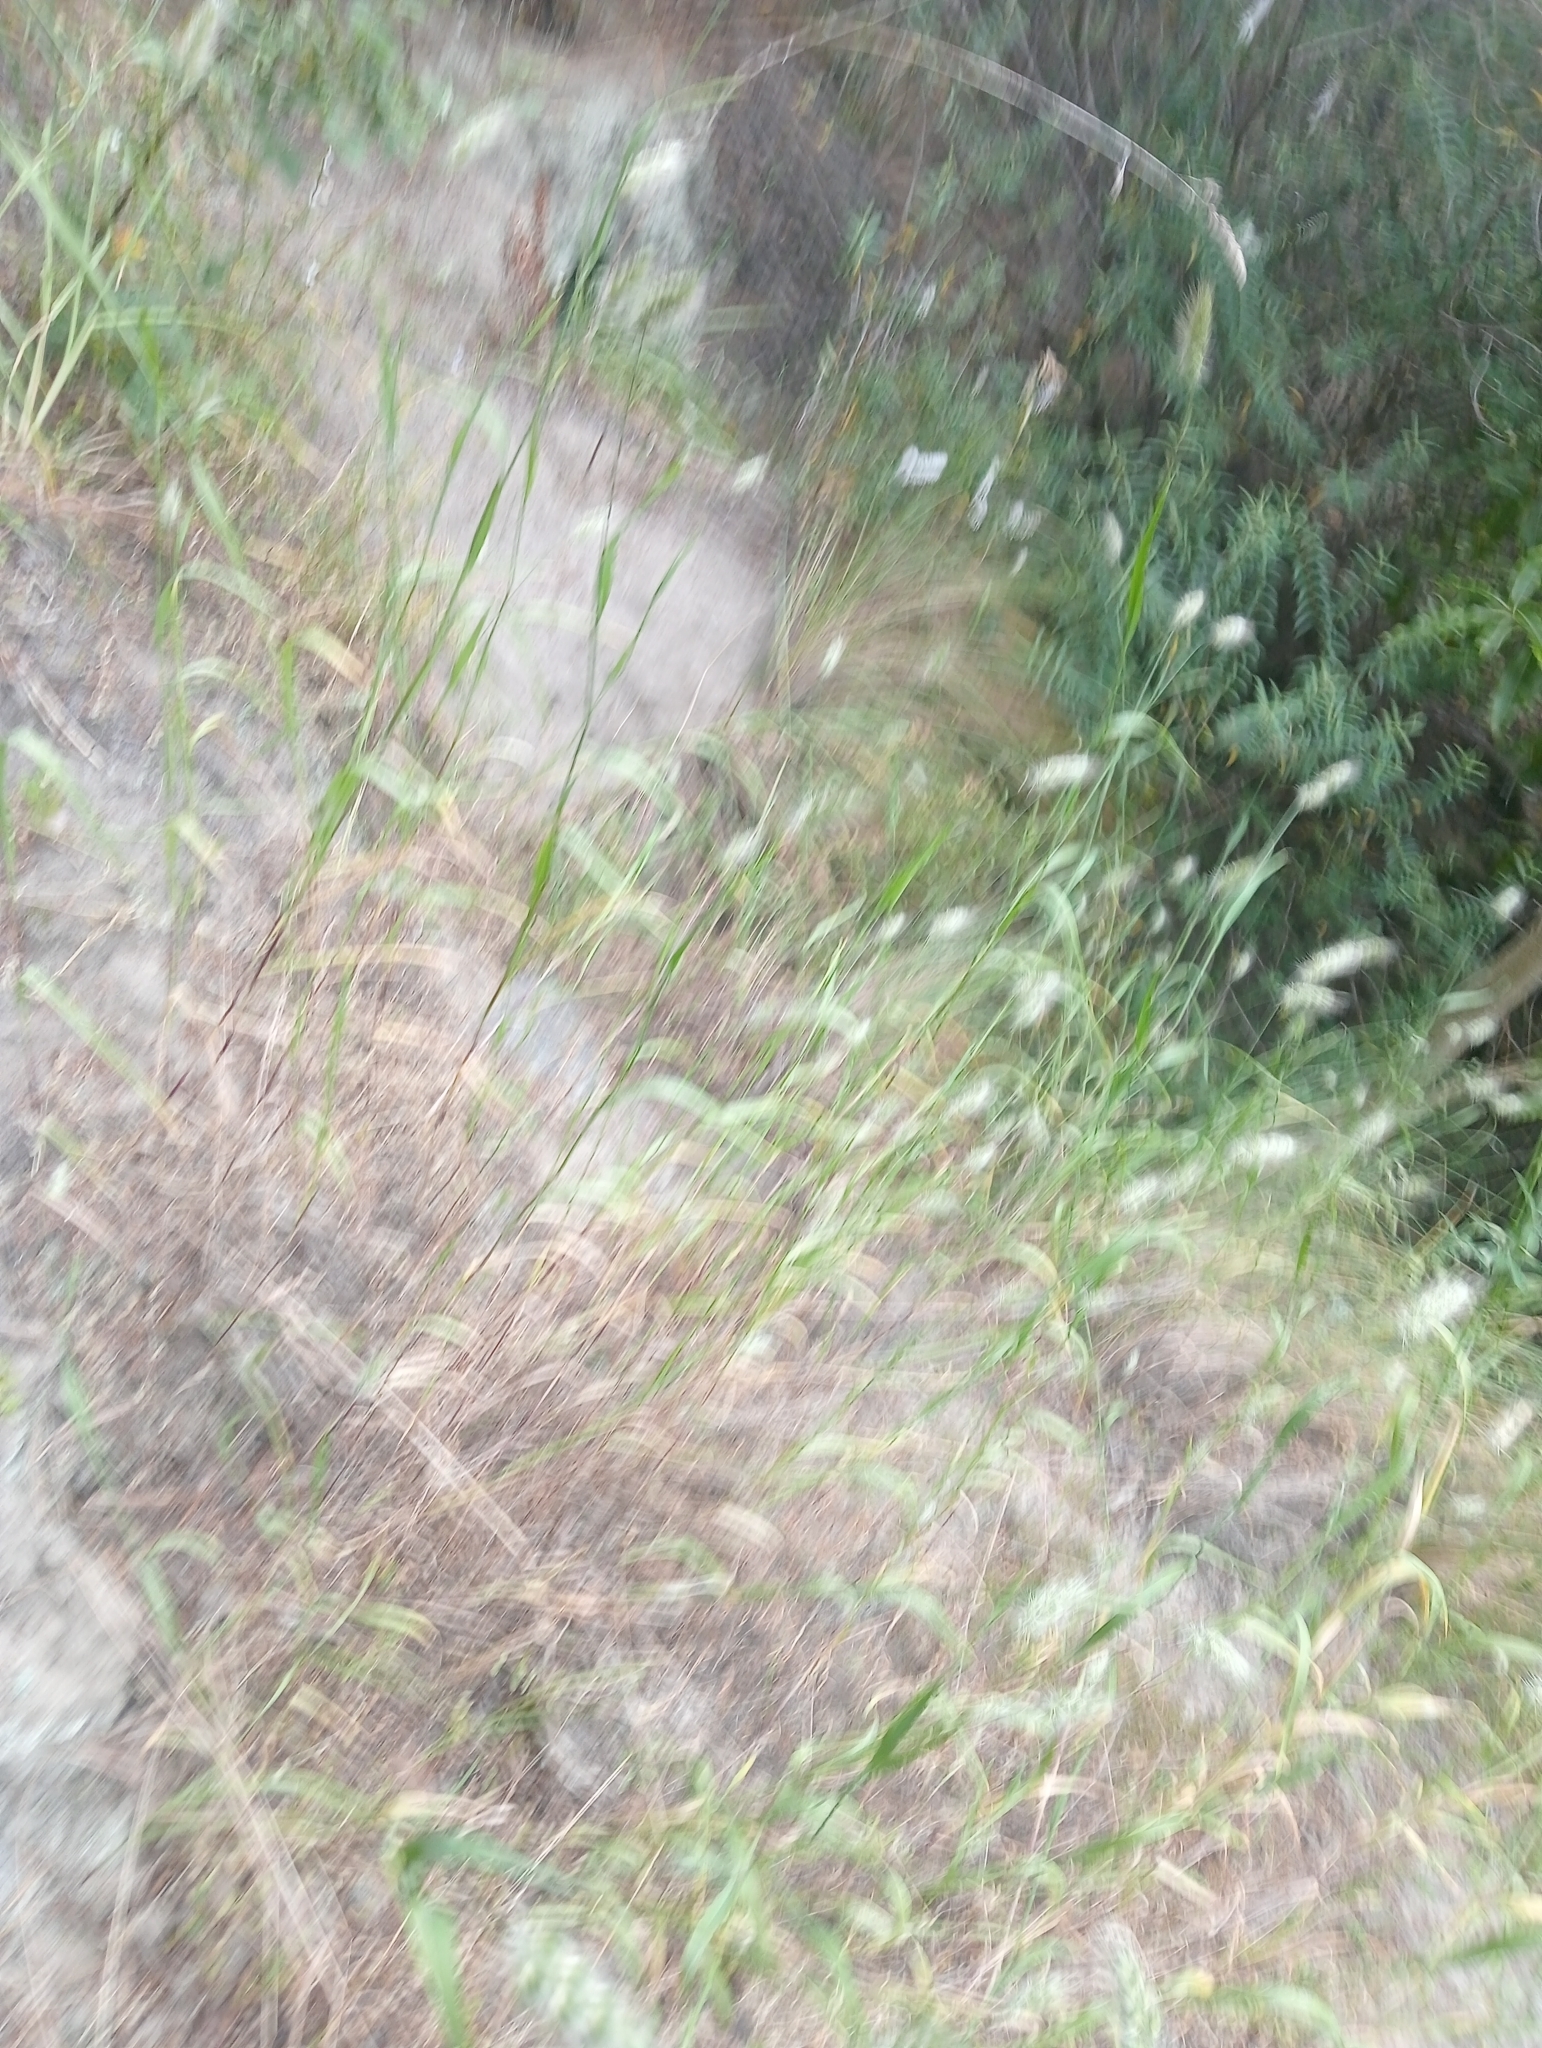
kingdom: Plantae
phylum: Tracheophyta
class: Liliopsida
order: Poales
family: Poaceae
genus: Cynosurus
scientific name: Cynosurus echinatus
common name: Rough dog's-tail
